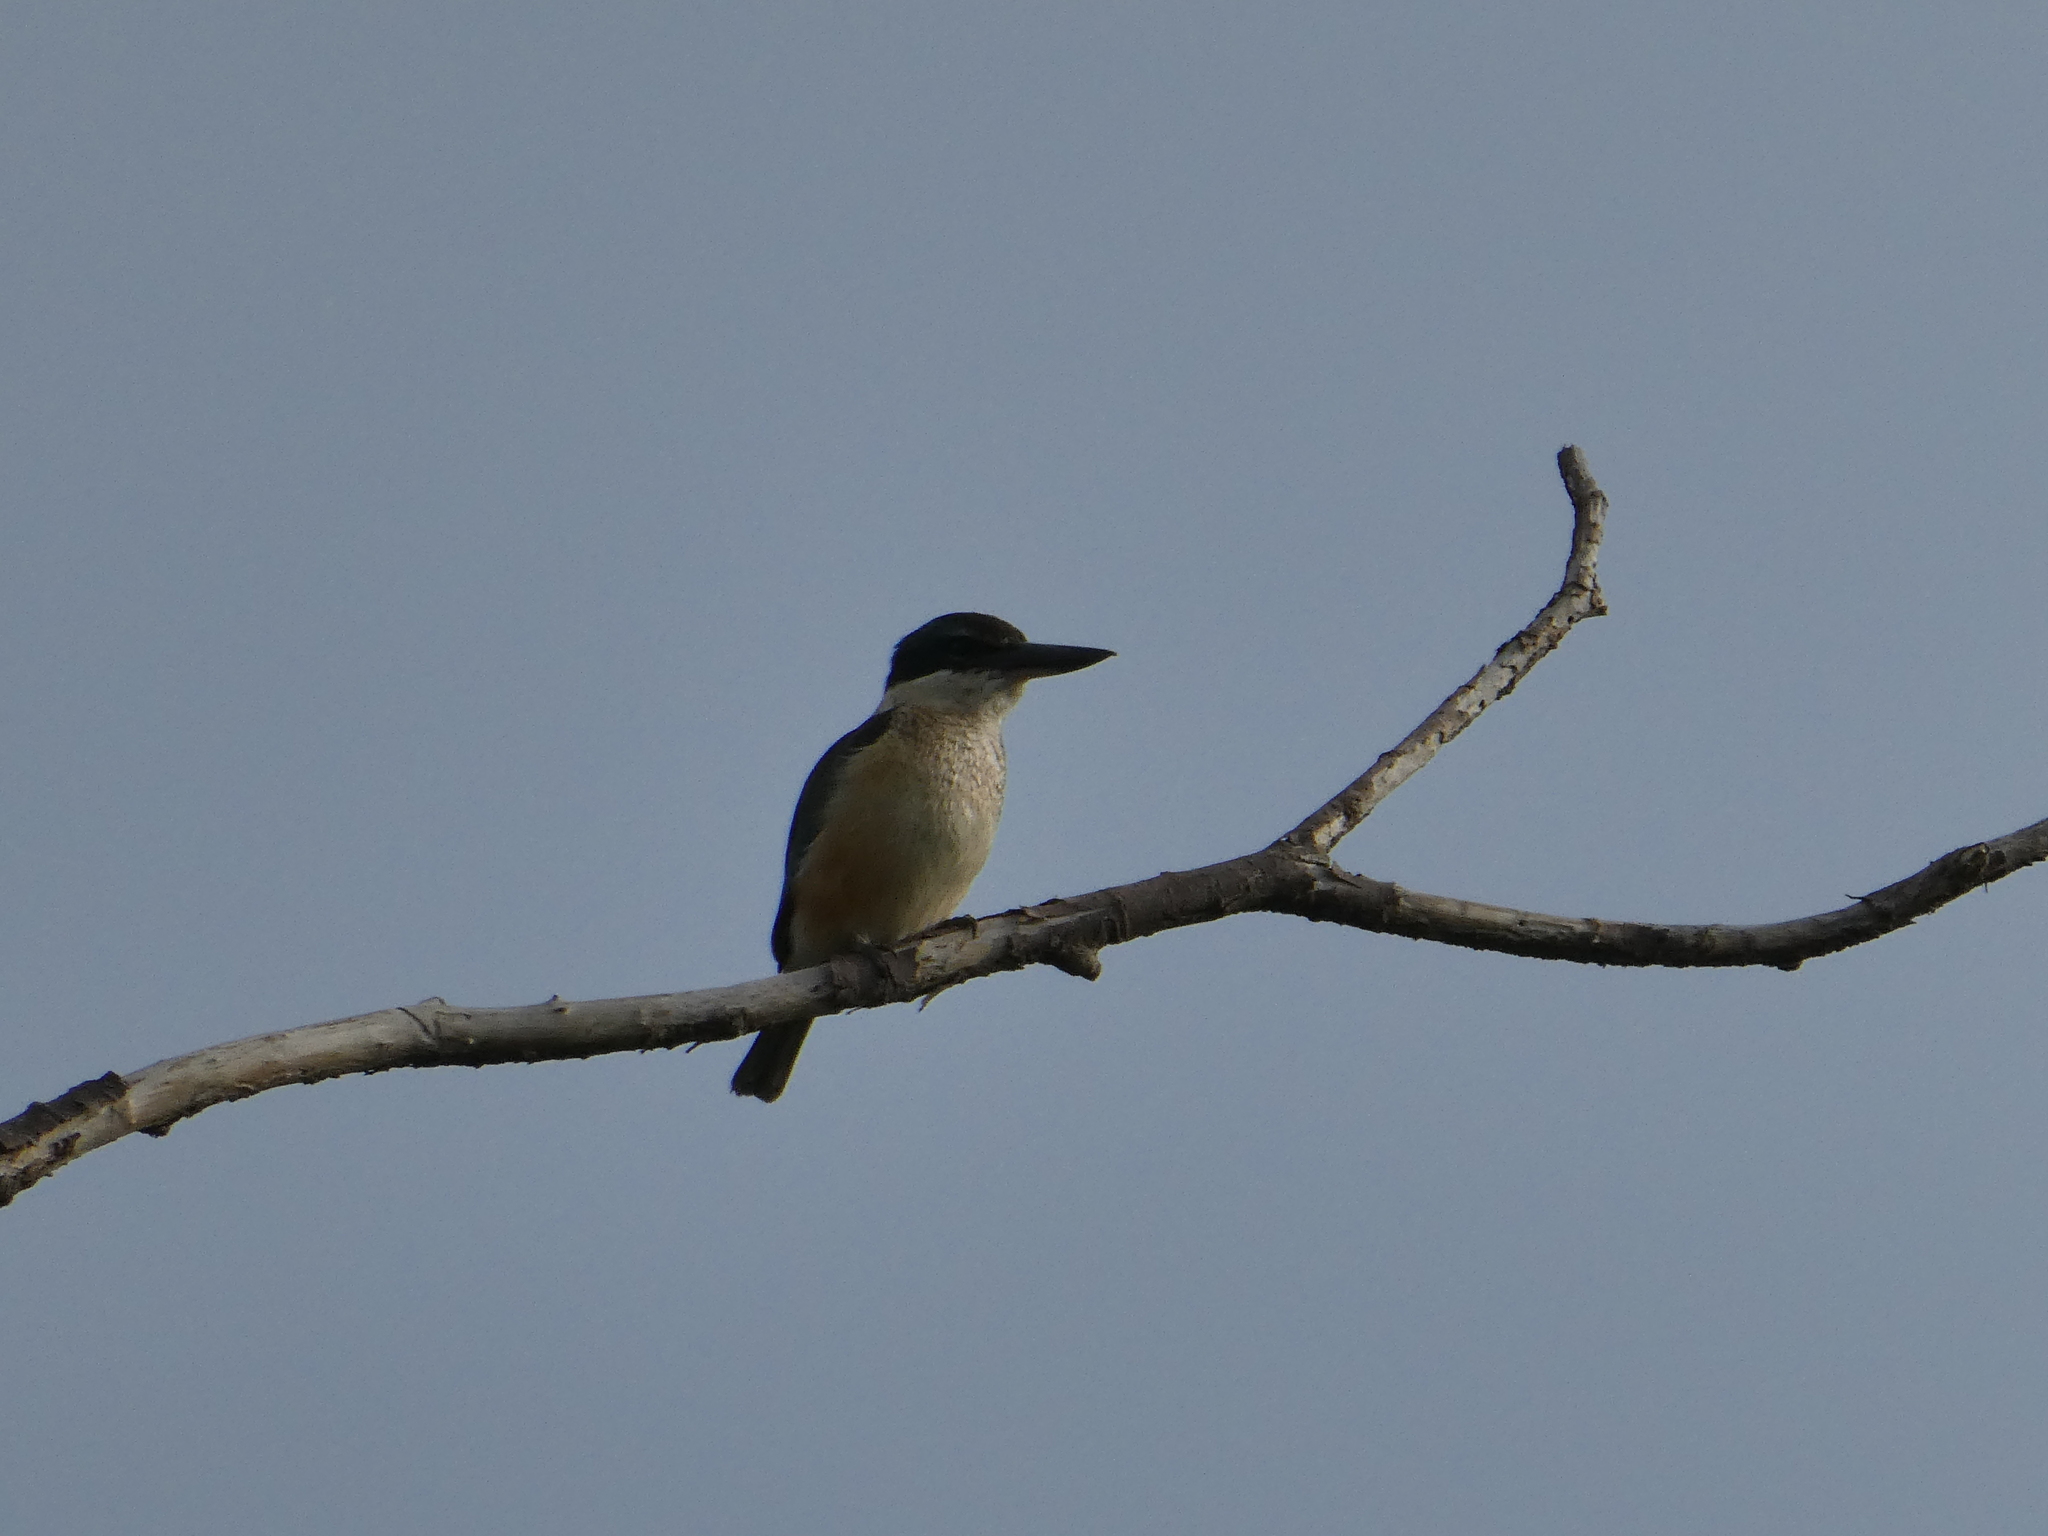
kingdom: Animalia
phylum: Chordata
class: Aves
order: Coraciiformes
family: Alcedinidae
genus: Todiramphus
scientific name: Todiramphus sanctus
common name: Sacred kingfisher
